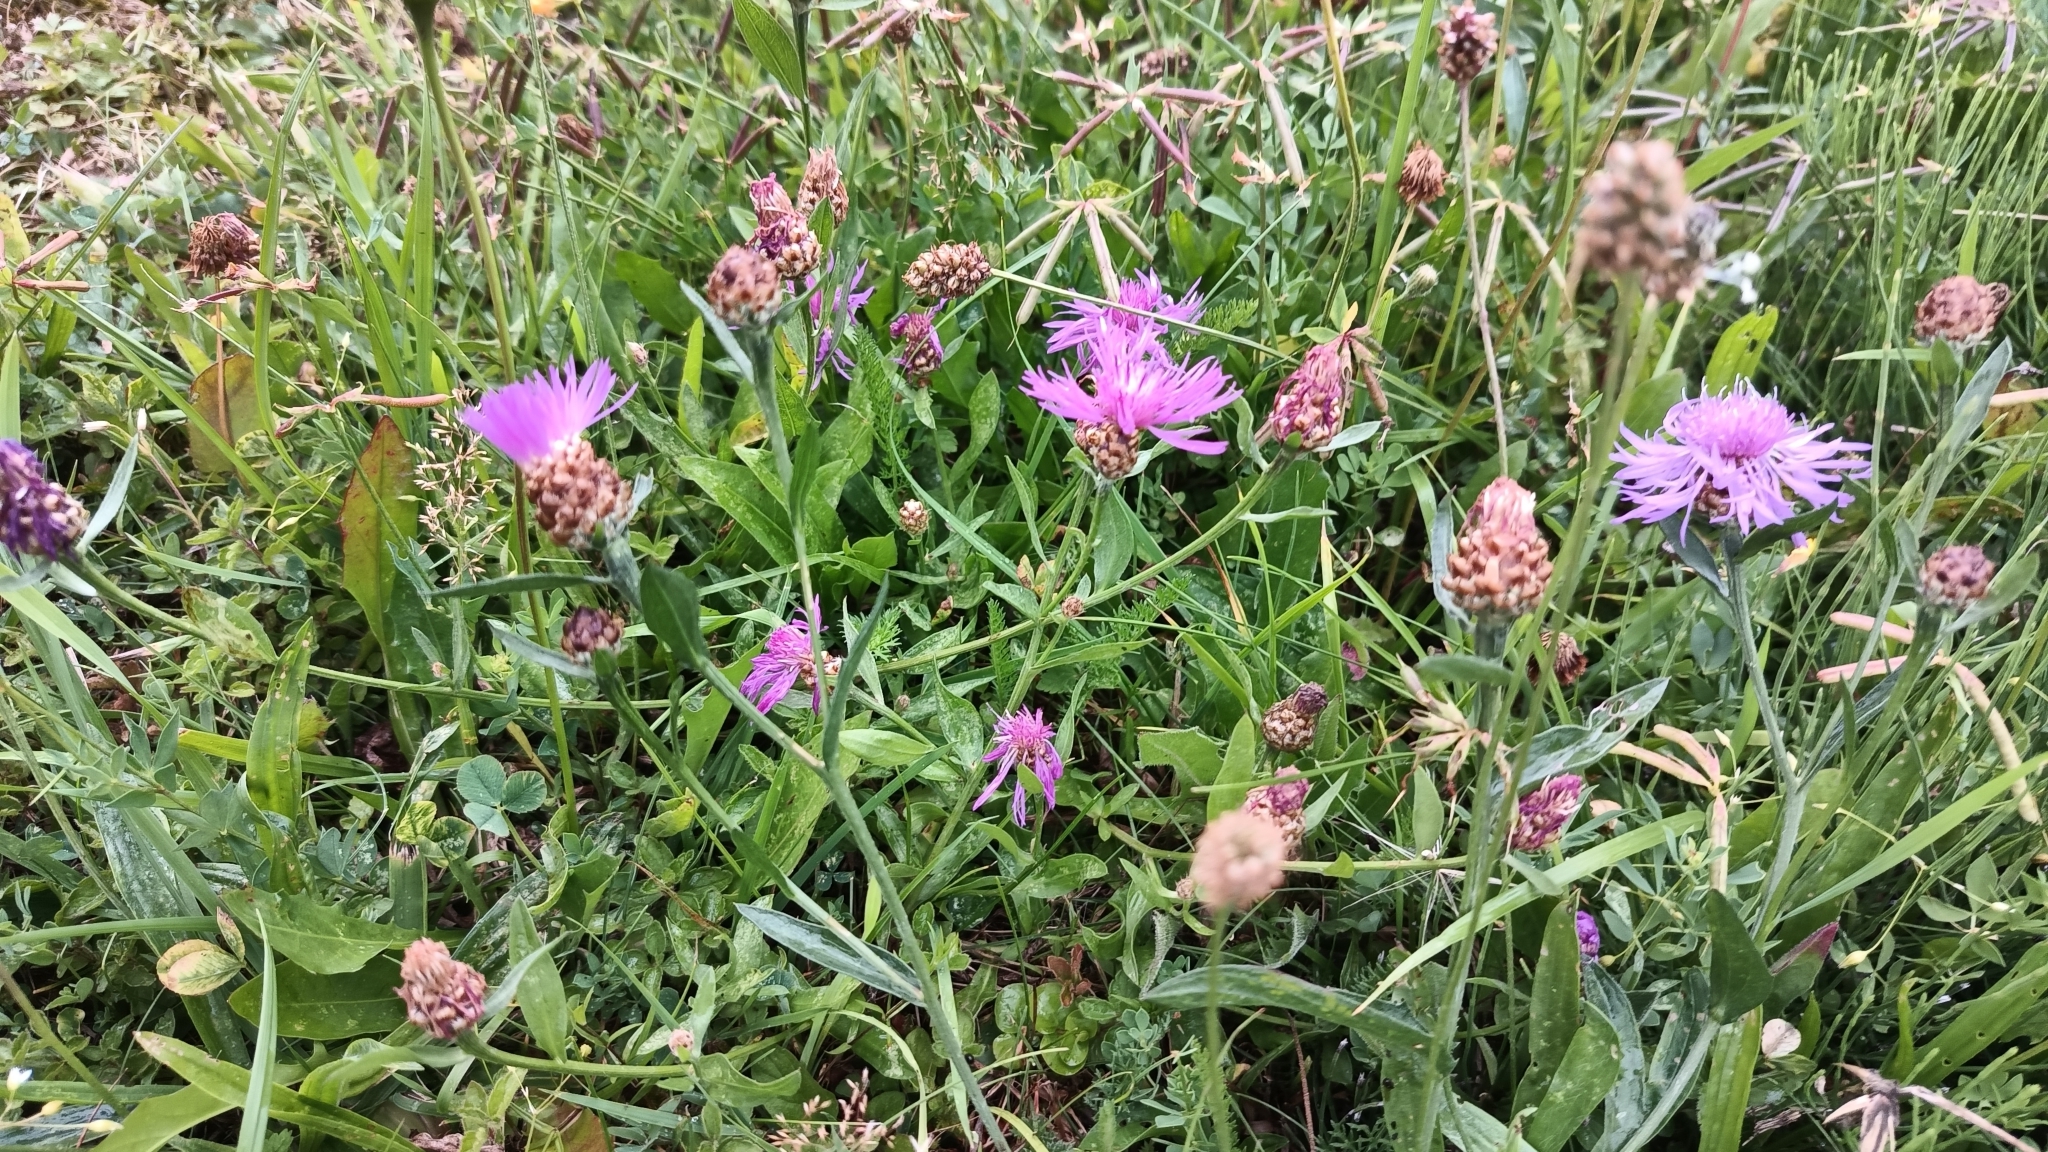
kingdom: Plantae
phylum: Tracheophyta
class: Magnoliopsida
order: Asterales
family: Asteraceae
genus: Centaurea
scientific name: Centaurea jacea
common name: Brown knapweed
